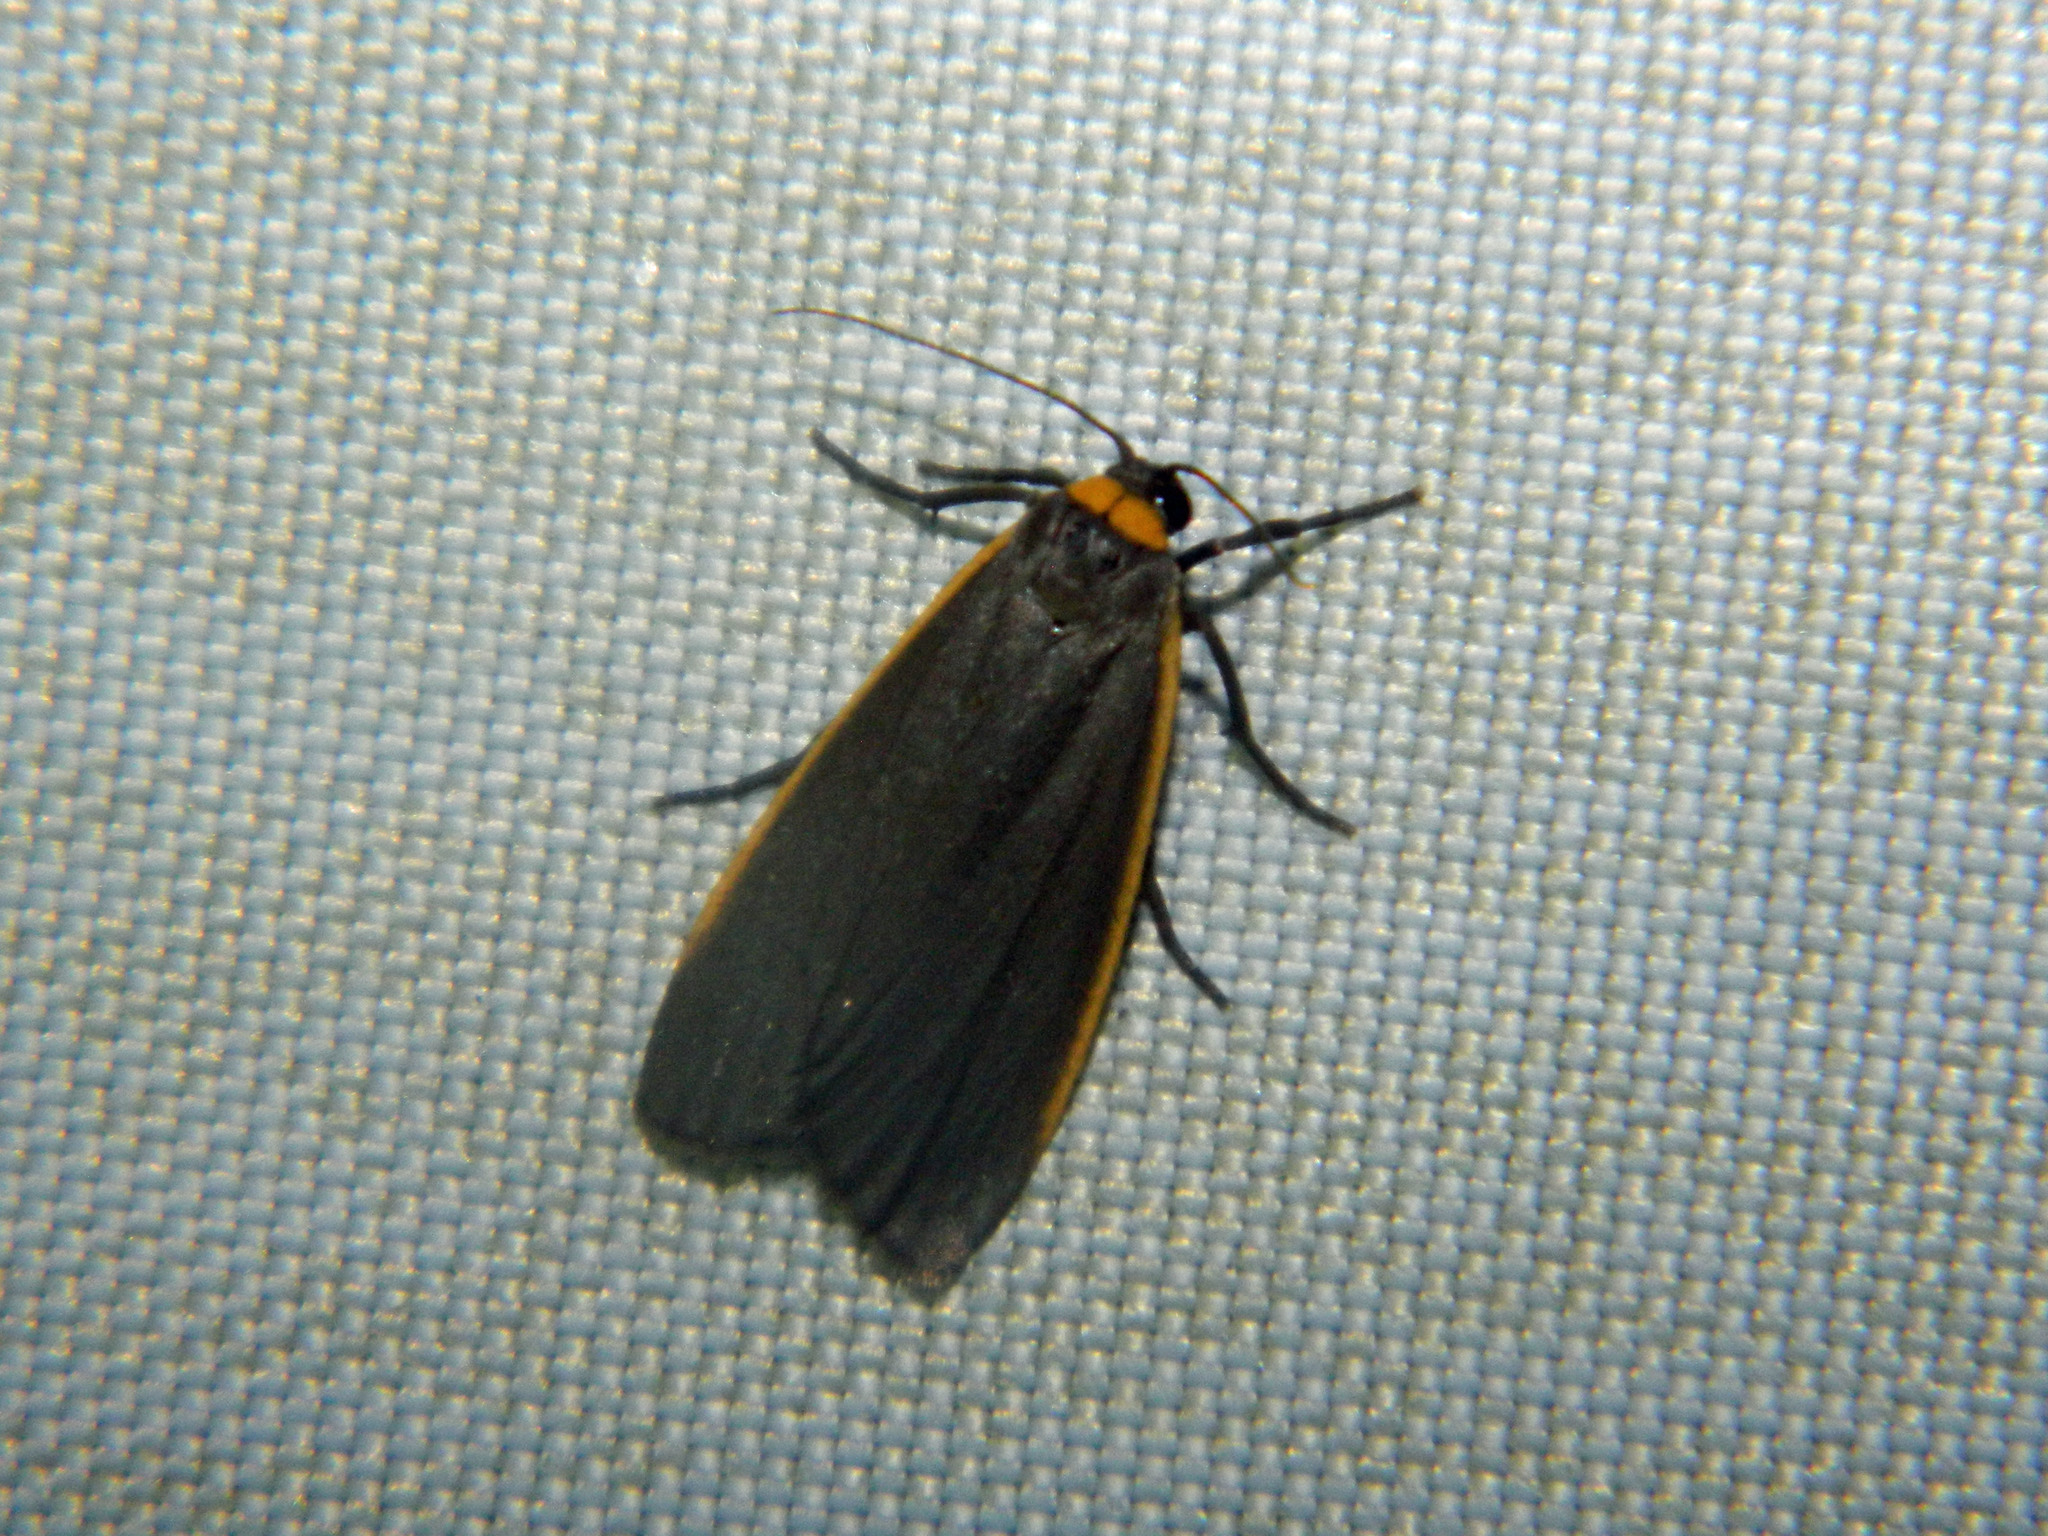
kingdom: Animalia
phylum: Arthropoda
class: Insecta
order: Lepidoptera
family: Erebidae
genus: Manulea
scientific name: Manulea bicolor
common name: Bicolored moth
